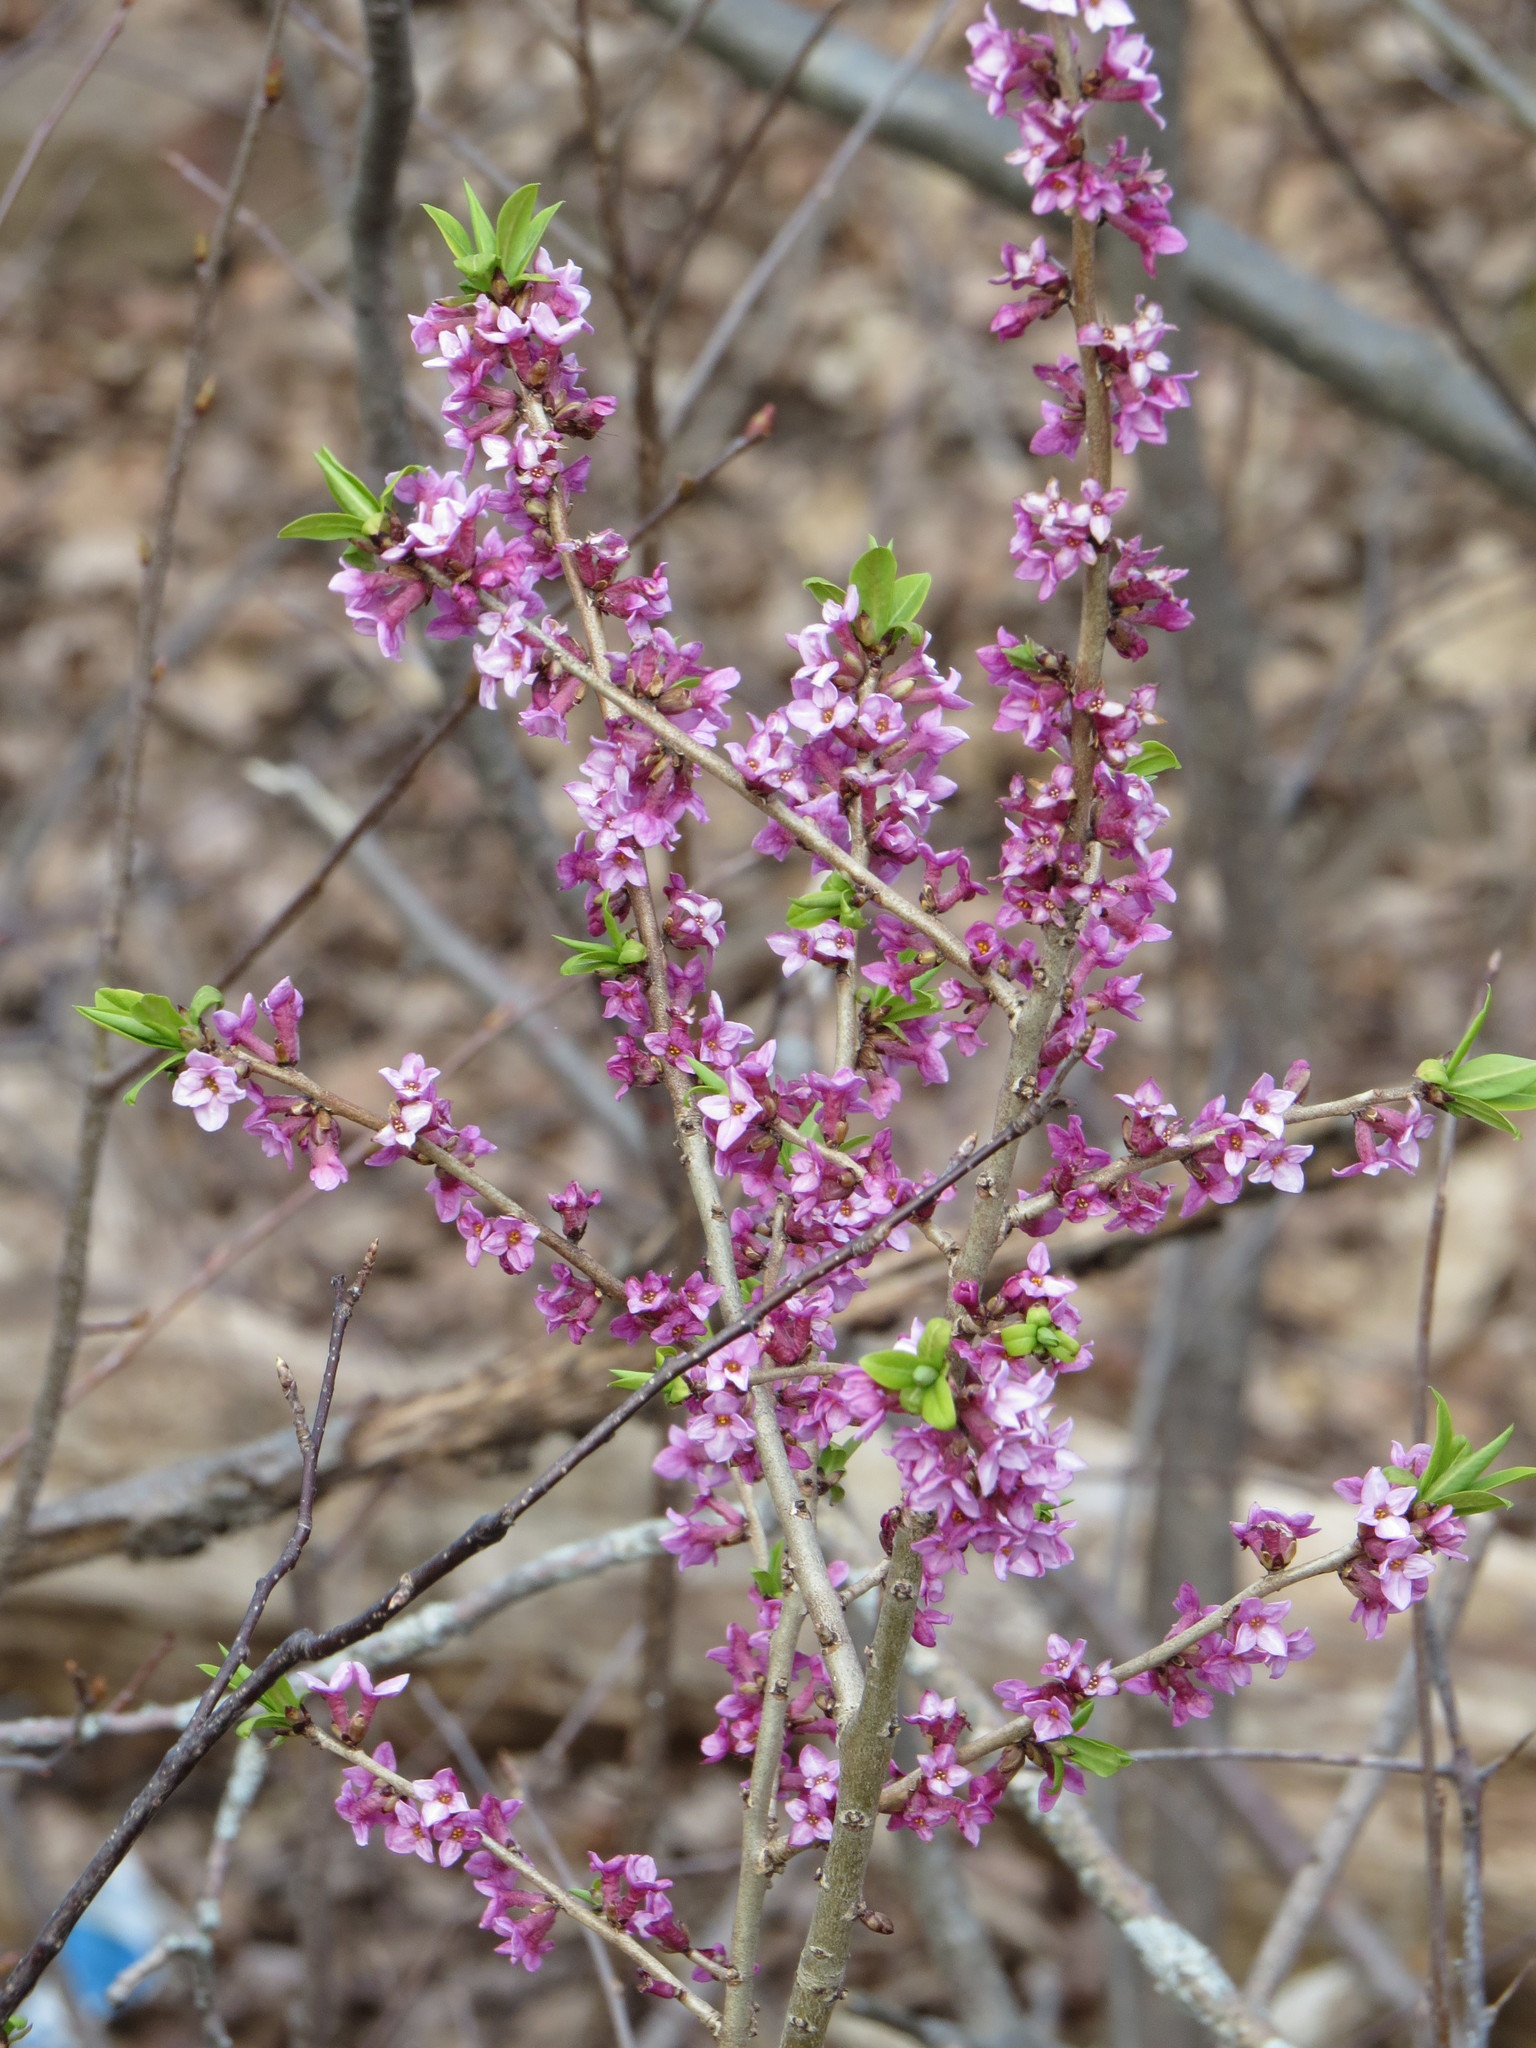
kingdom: Plantae
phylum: Tracheophyta
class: Magnoliopsida
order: Malvales
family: Thymelaeaceae
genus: Daphne
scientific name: Daphne mezereum
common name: Mezereon
